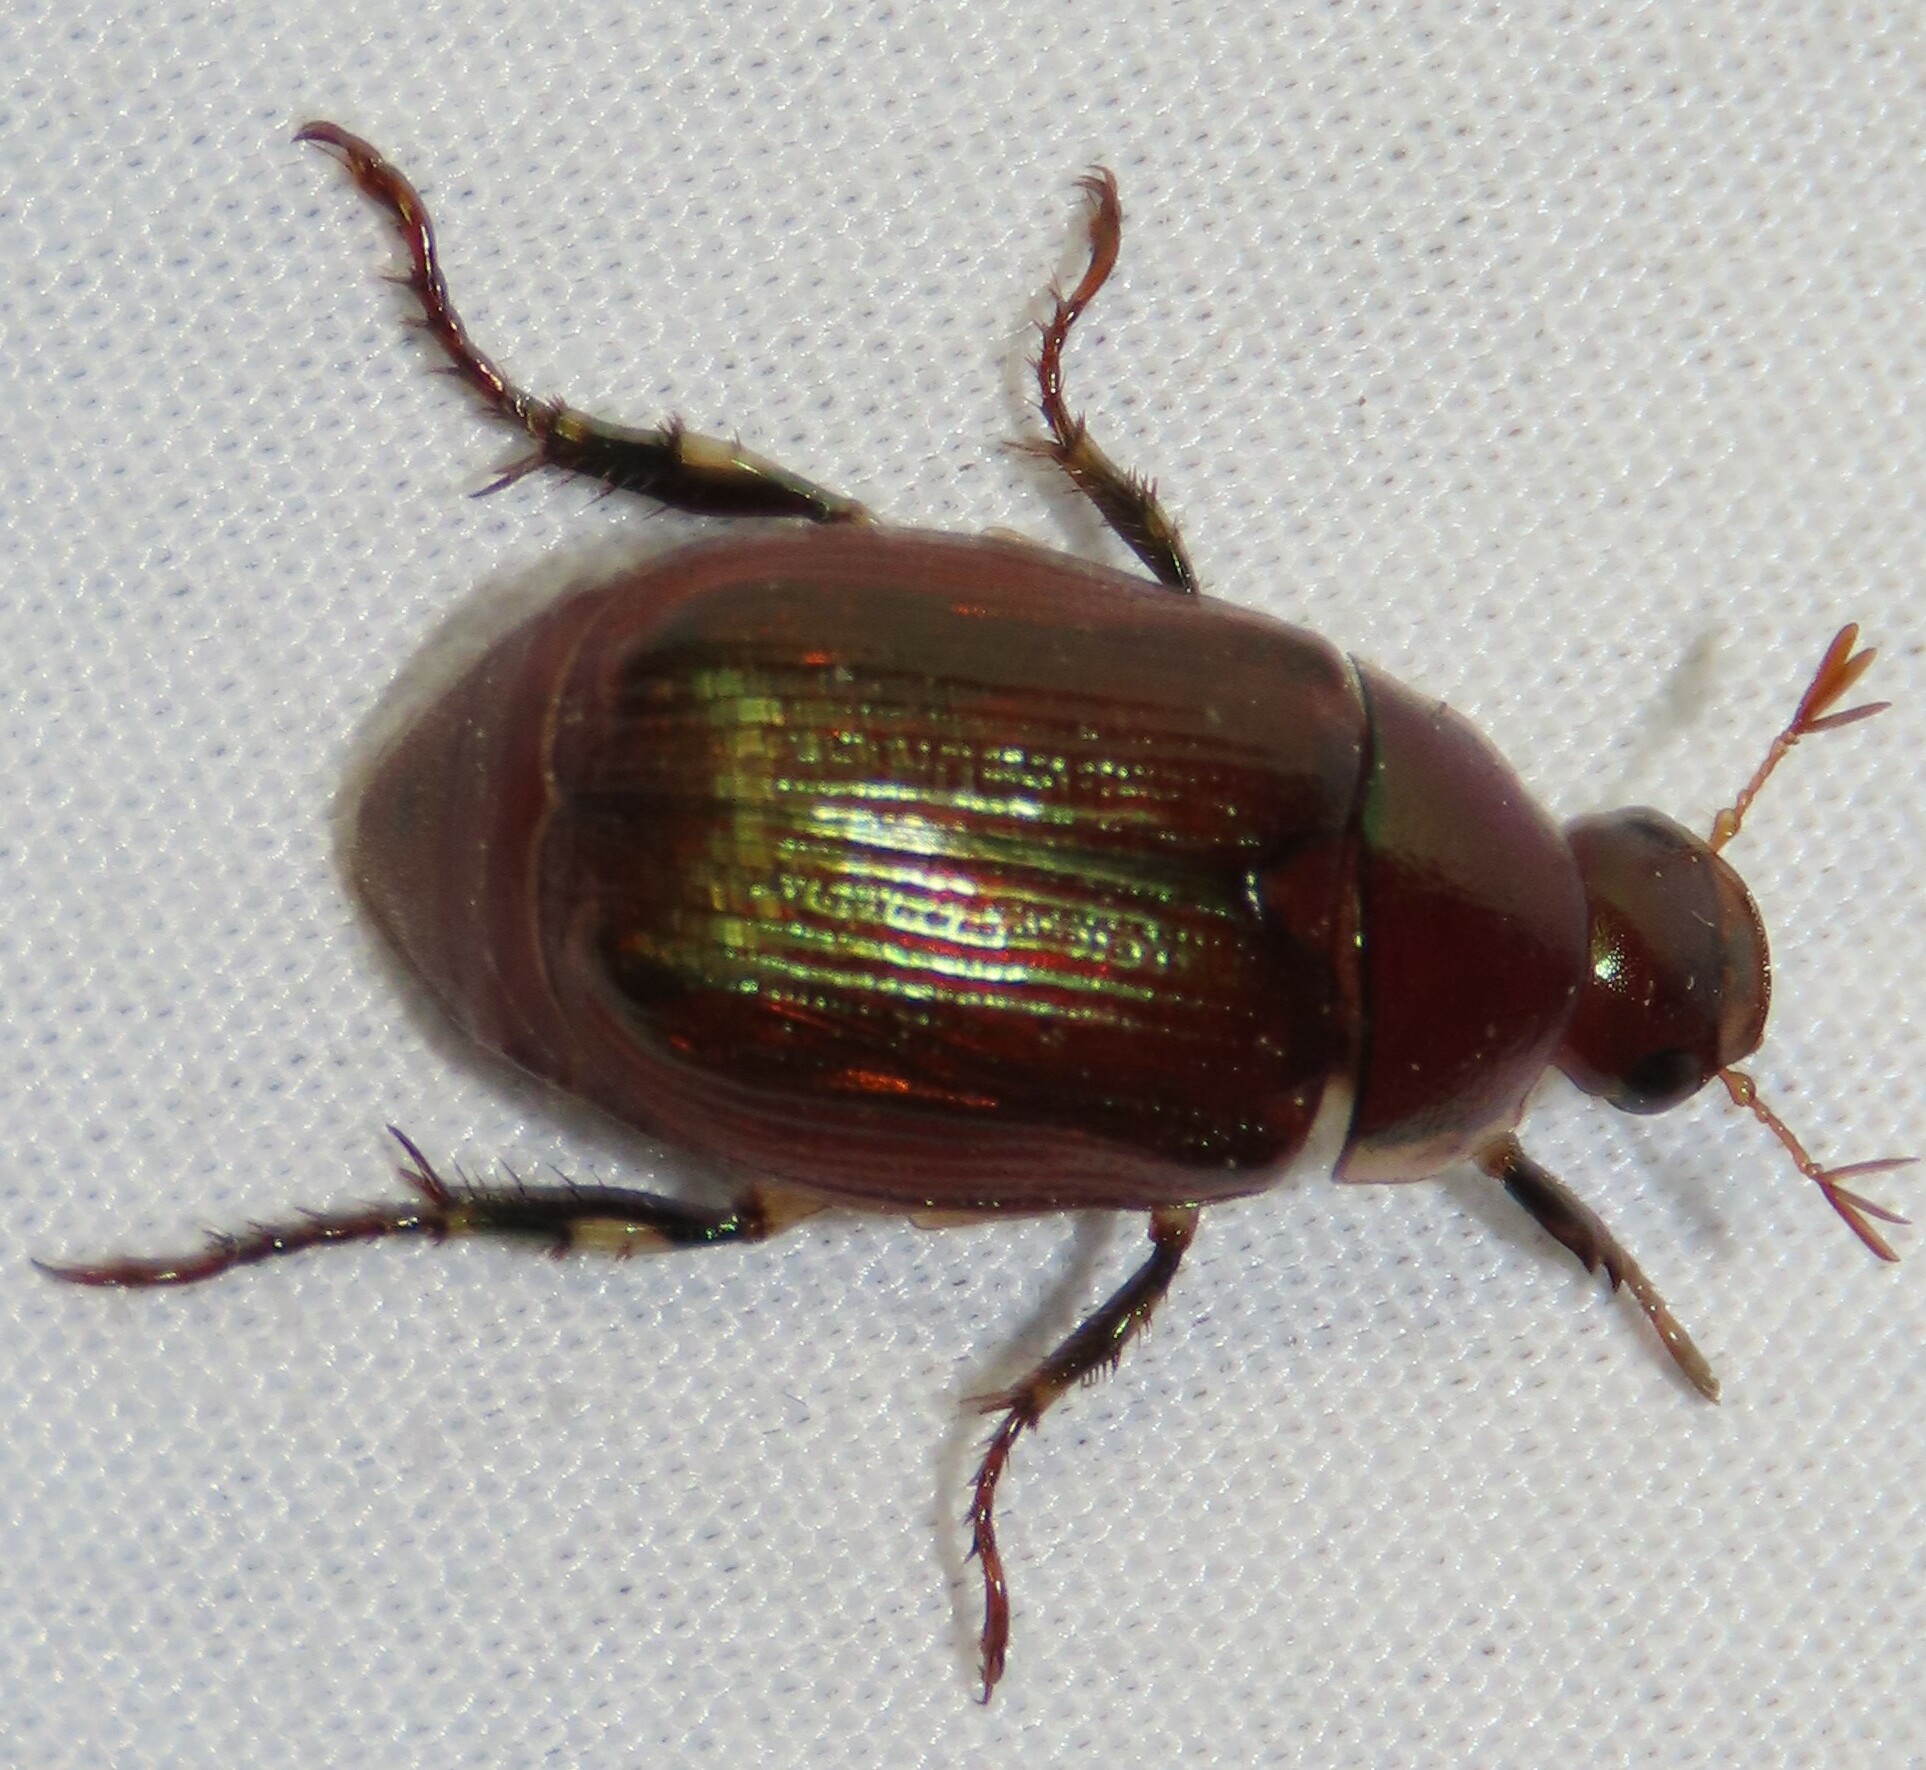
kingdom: Animalia
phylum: Arthropoda
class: Insecta
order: Coleoptera
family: Scarabaeidae
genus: Callistethus
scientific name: Callistethus marginatus
